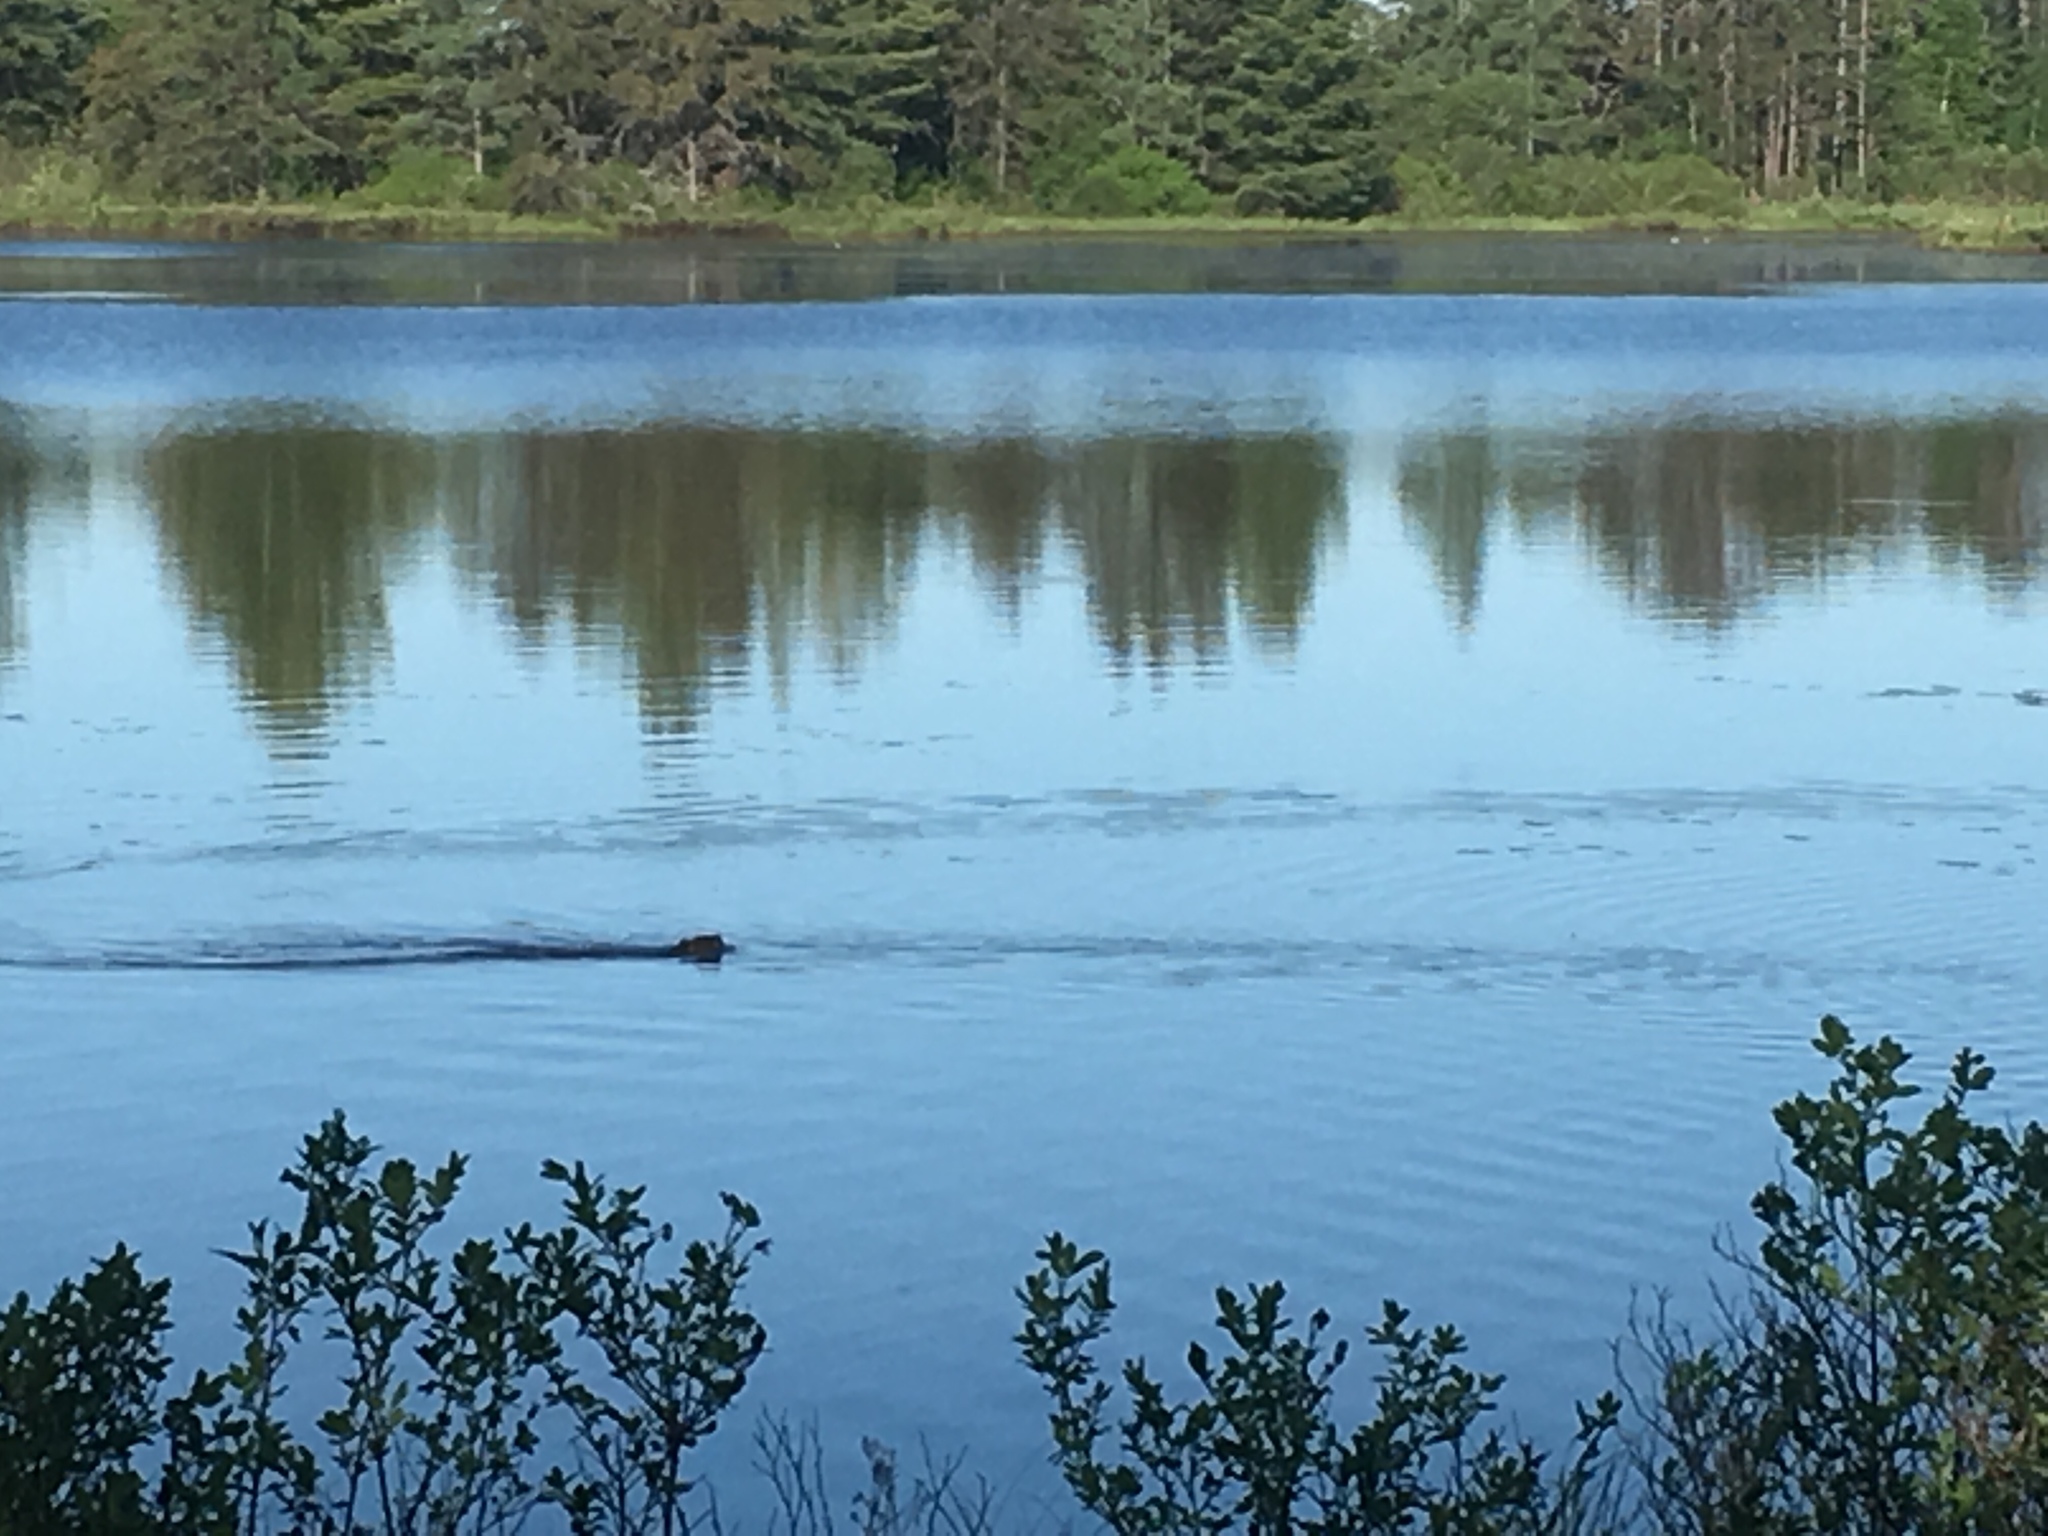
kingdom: Animalia
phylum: Chordata
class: Mammalia
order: Rodentia
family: Castoridae
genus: Castor
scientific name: Castor canadensis
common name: American beaver
